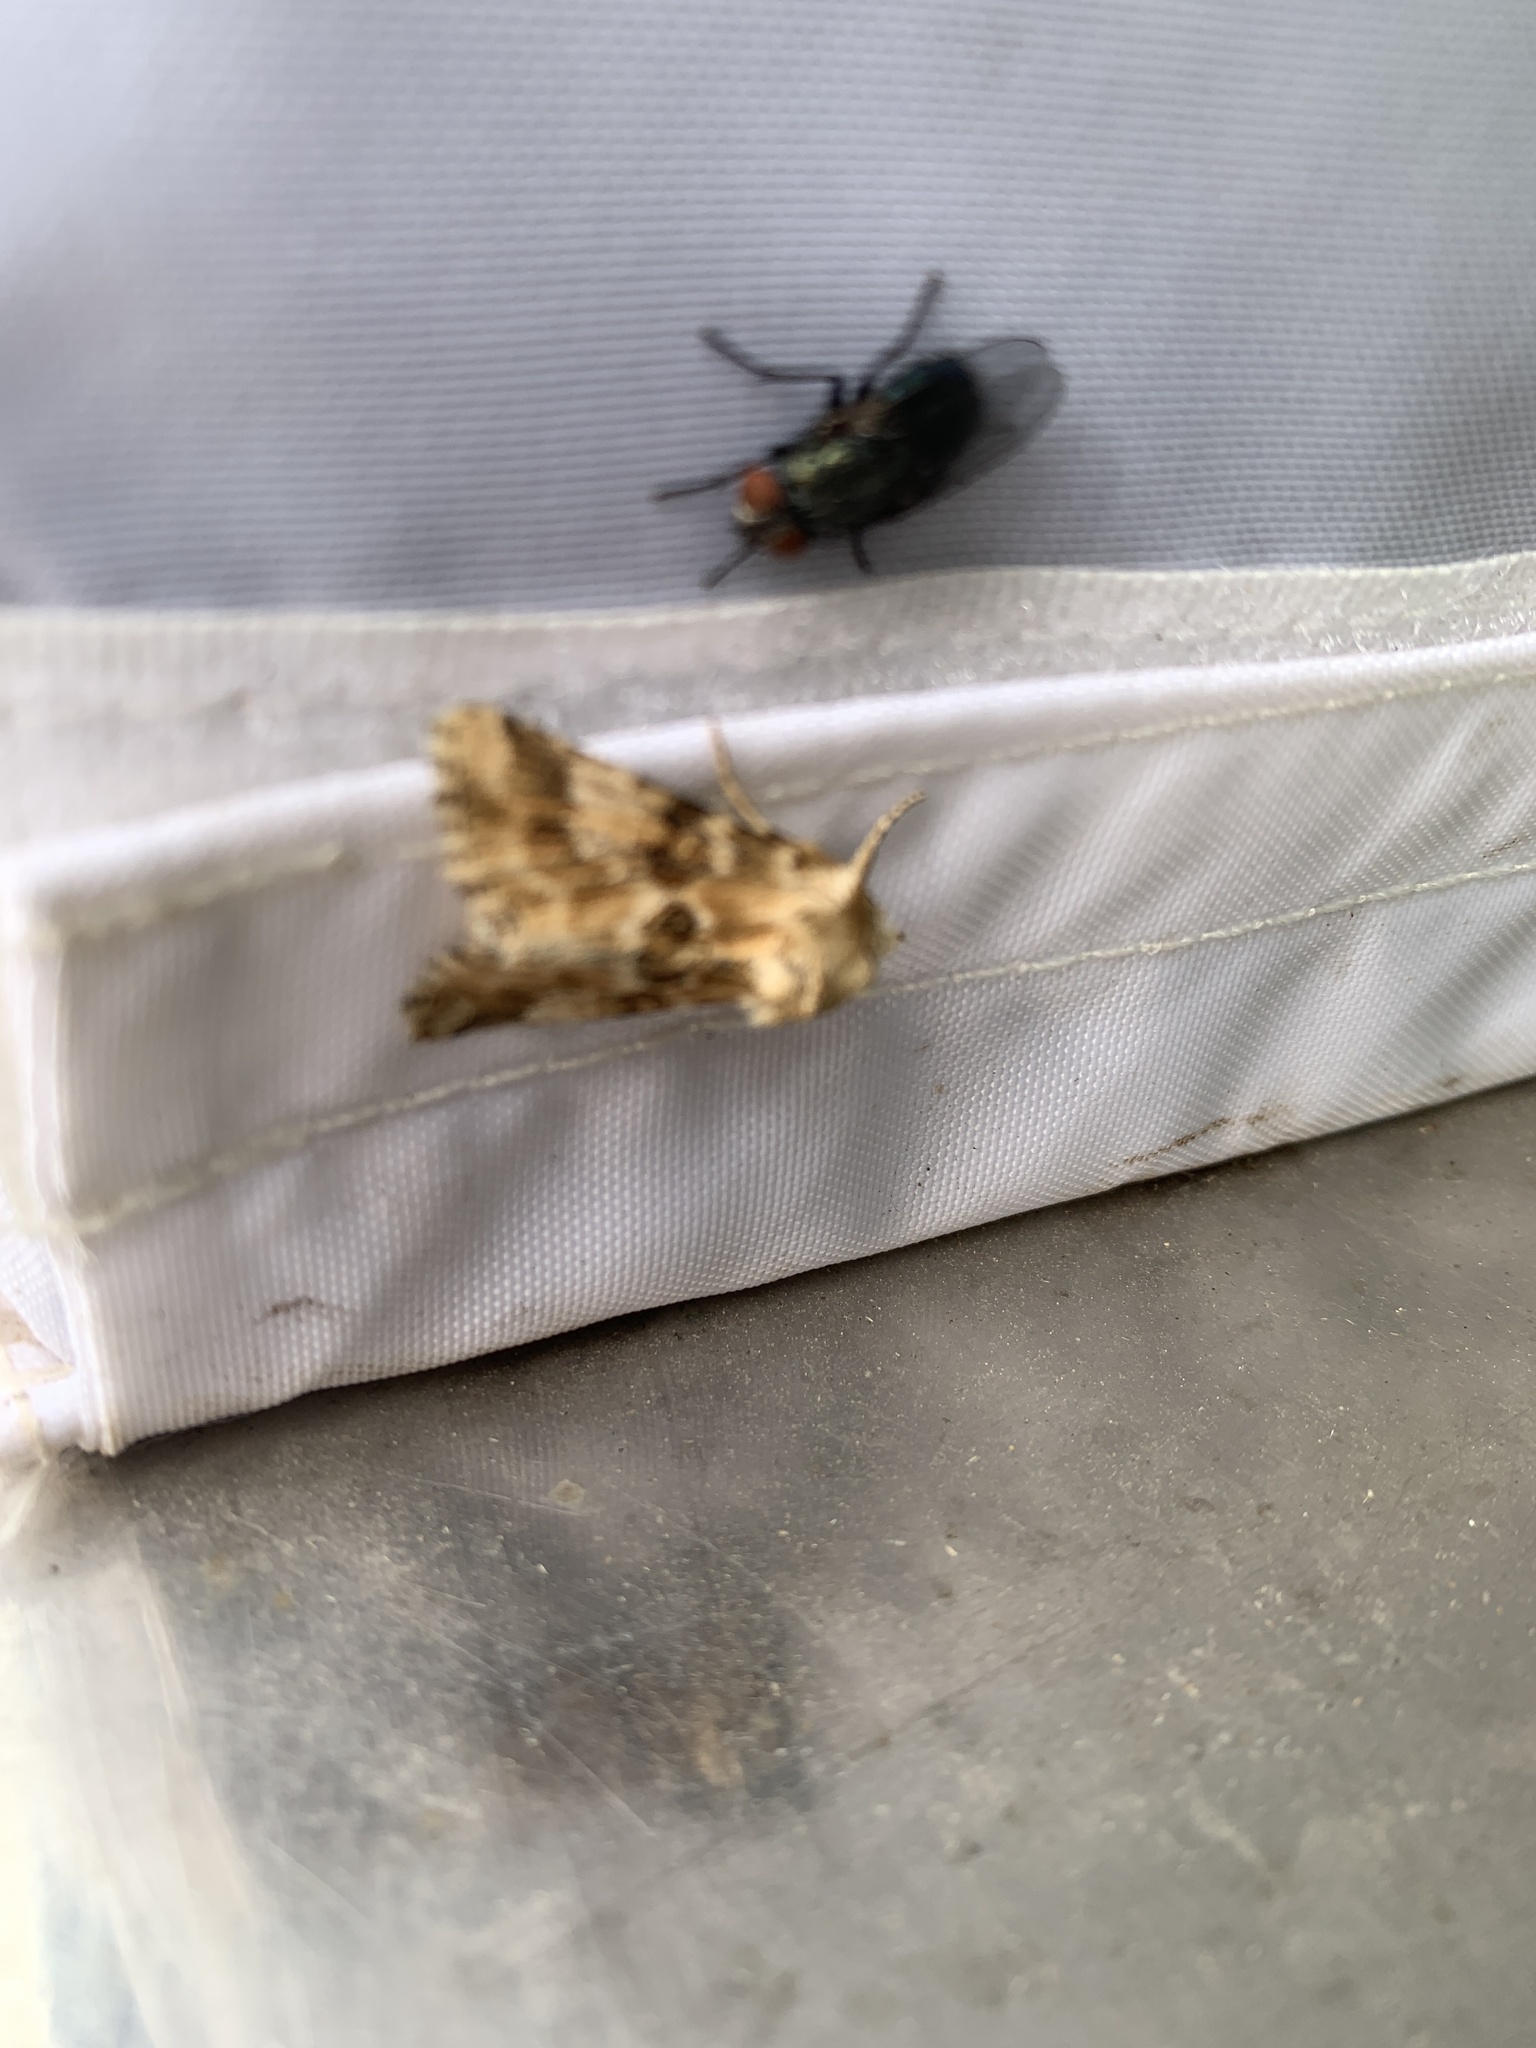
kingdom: Animalia
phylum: Arthropoda
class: Insecta
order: Lepidoptera
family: Noctuidae
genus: Eremobia
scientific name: Eremobia ochroleuca
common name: Dusky sallow
